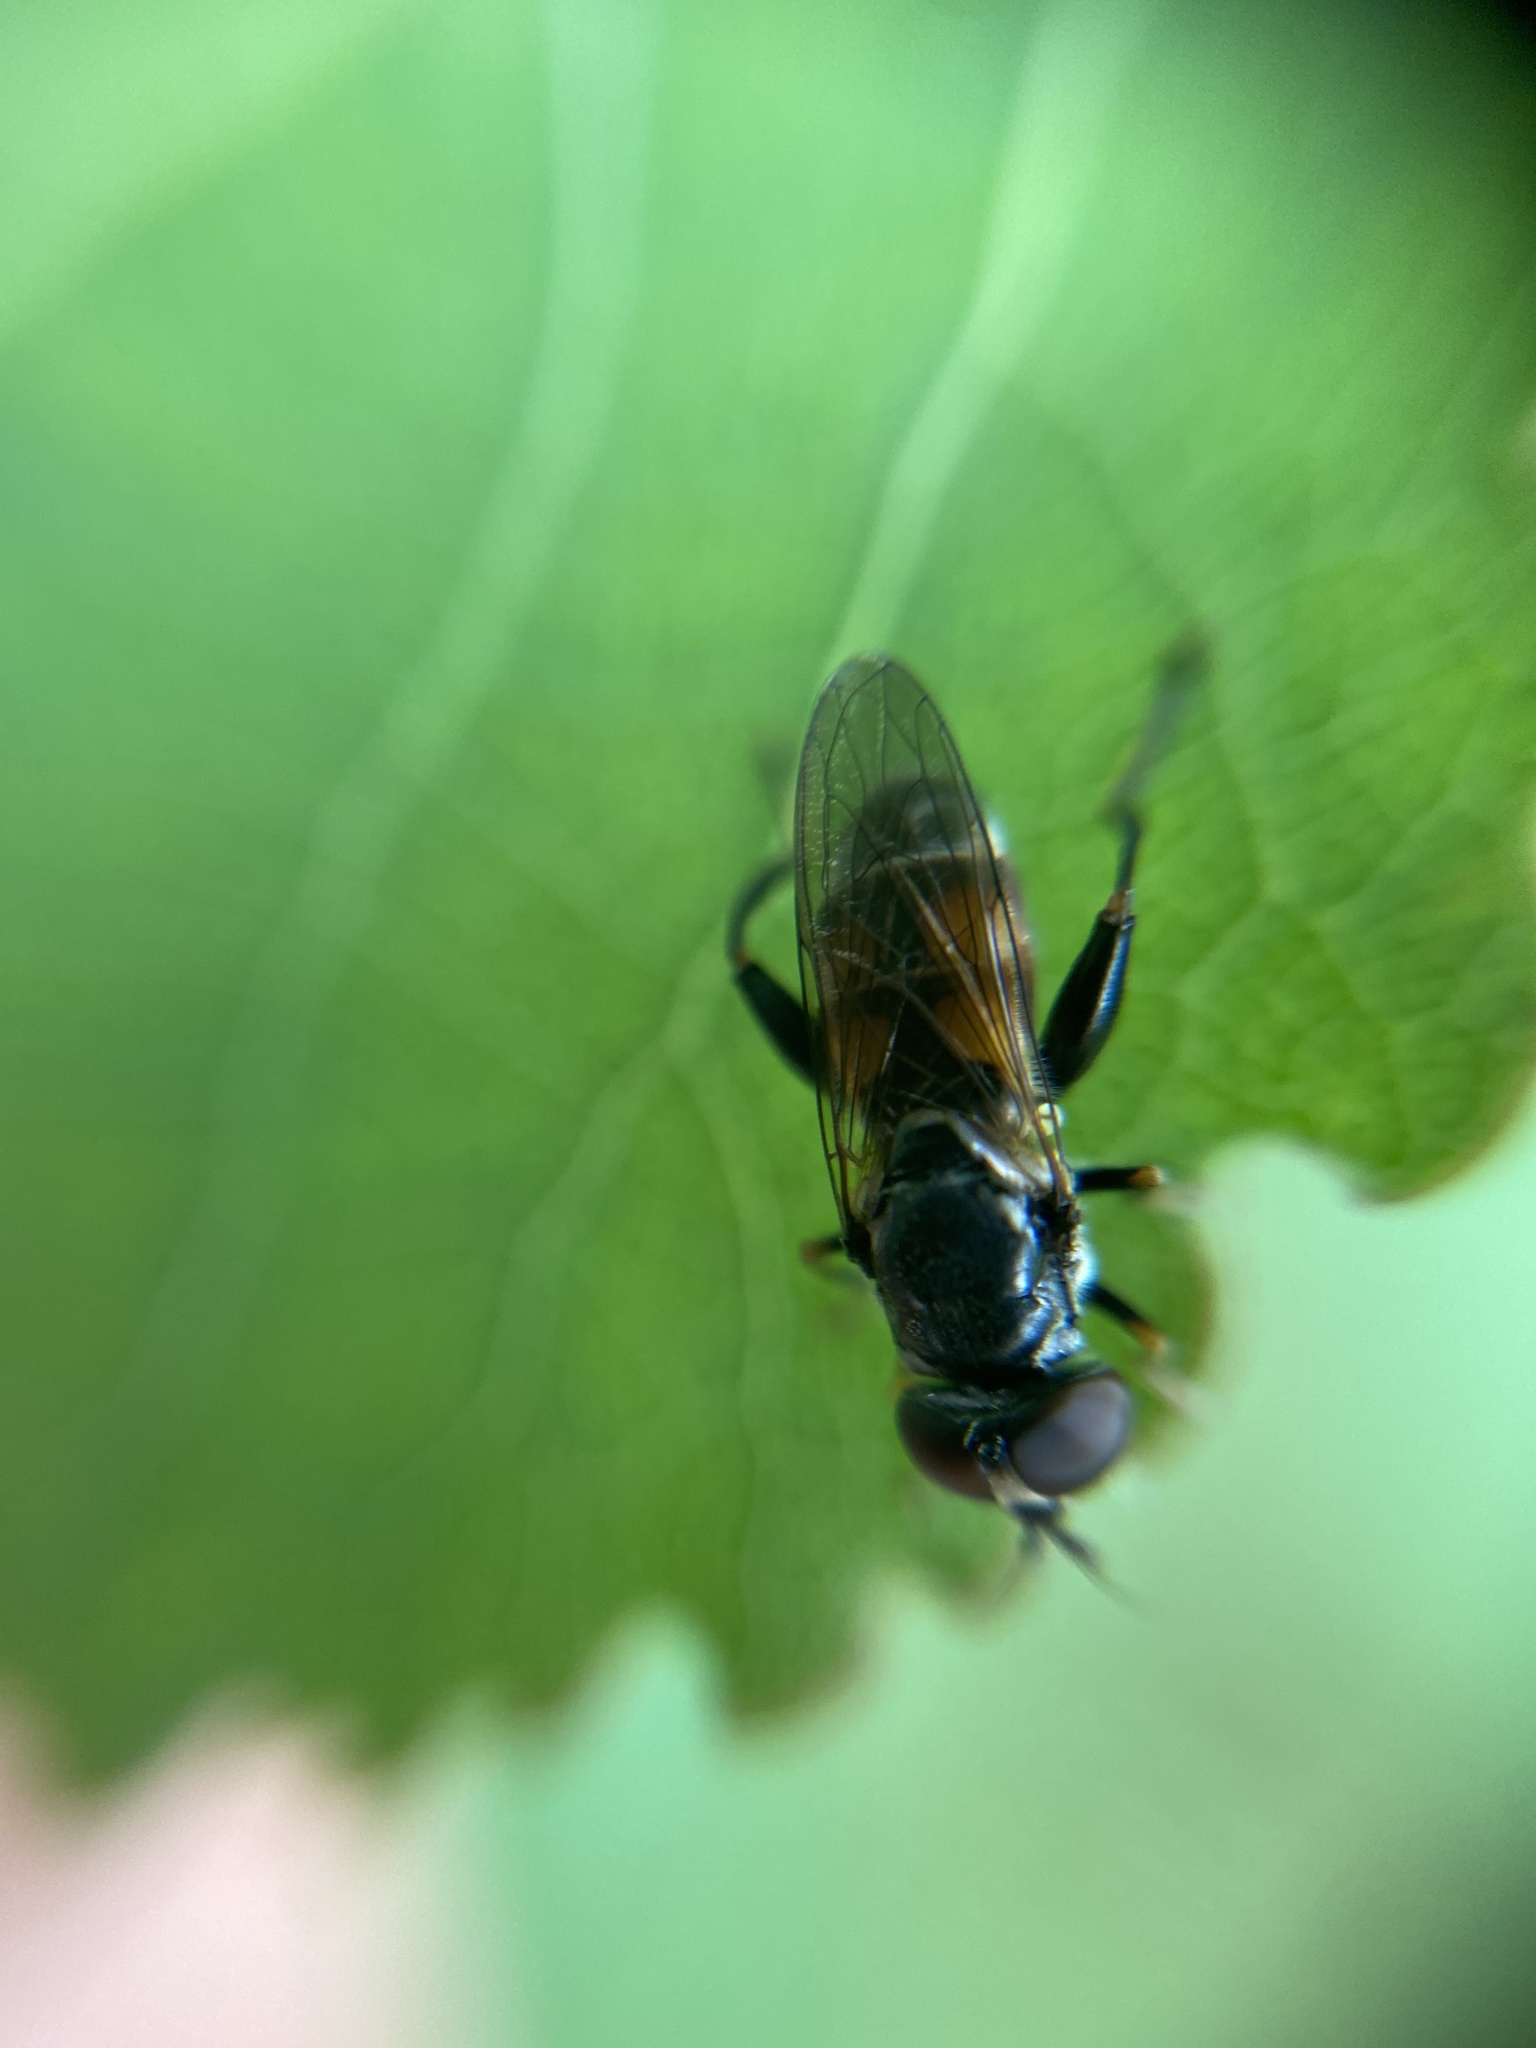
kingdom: Animalia
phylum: Arthropoda
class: Insecta
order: Diptera
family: Syrphidae
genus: Tropidia
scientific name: Tropidia scita
